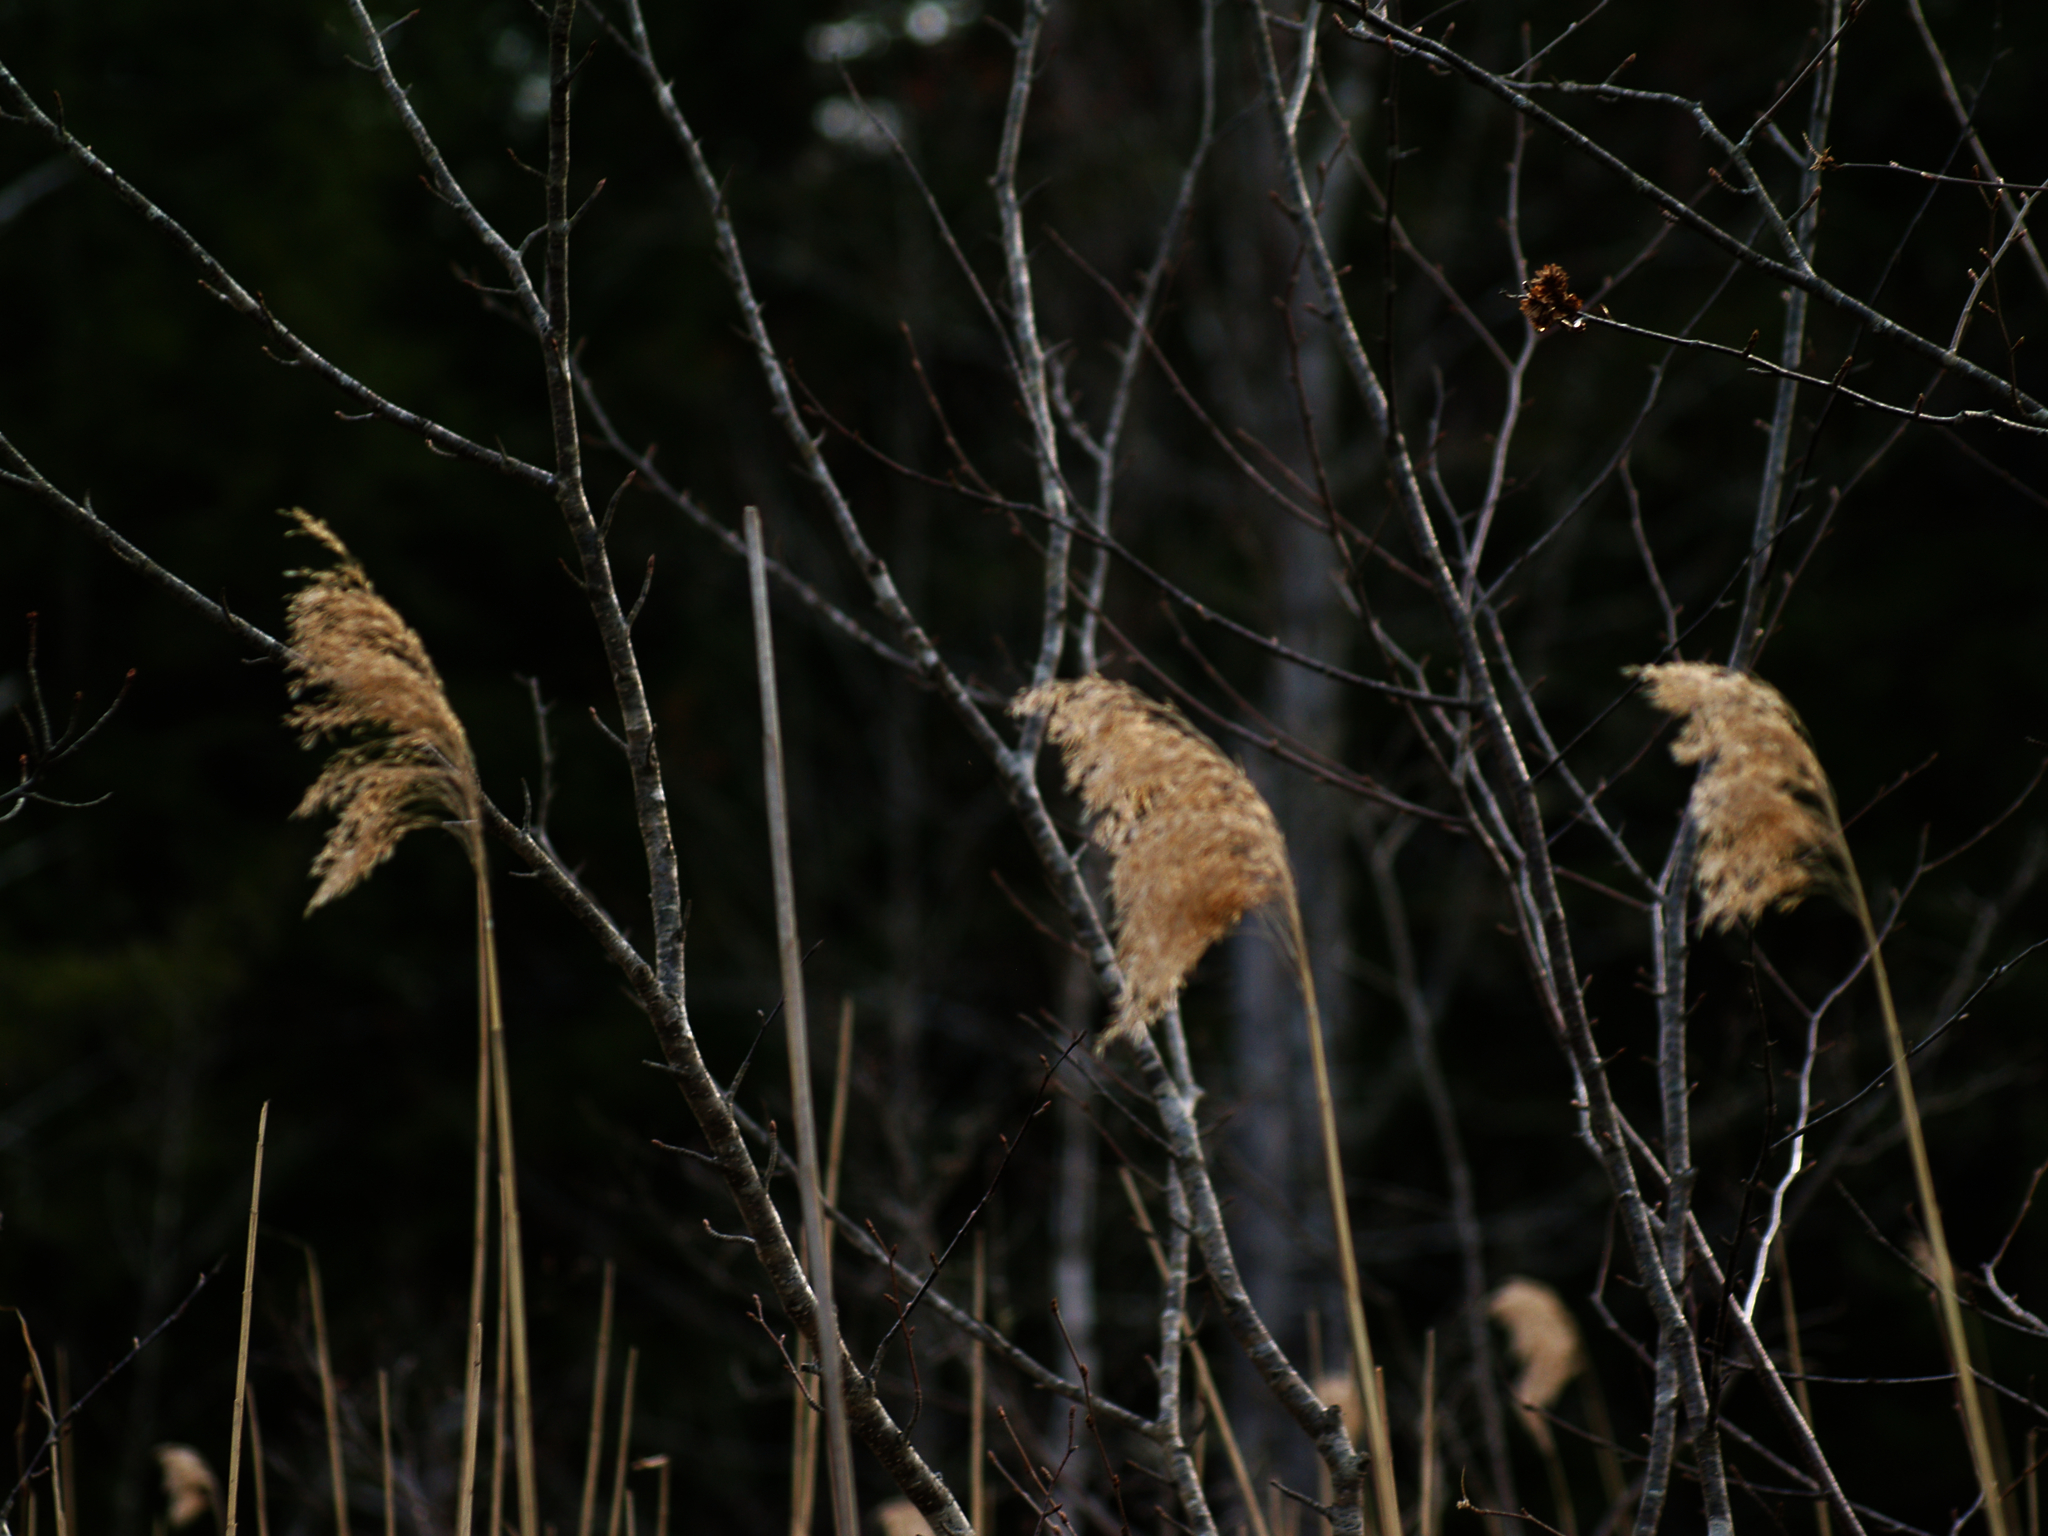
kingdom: Plantae
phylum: Tracheophyta
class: Liliopsida
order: Poales
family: Poaceae
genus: Phragmites
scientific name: Phragmites australis
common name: Common reed
